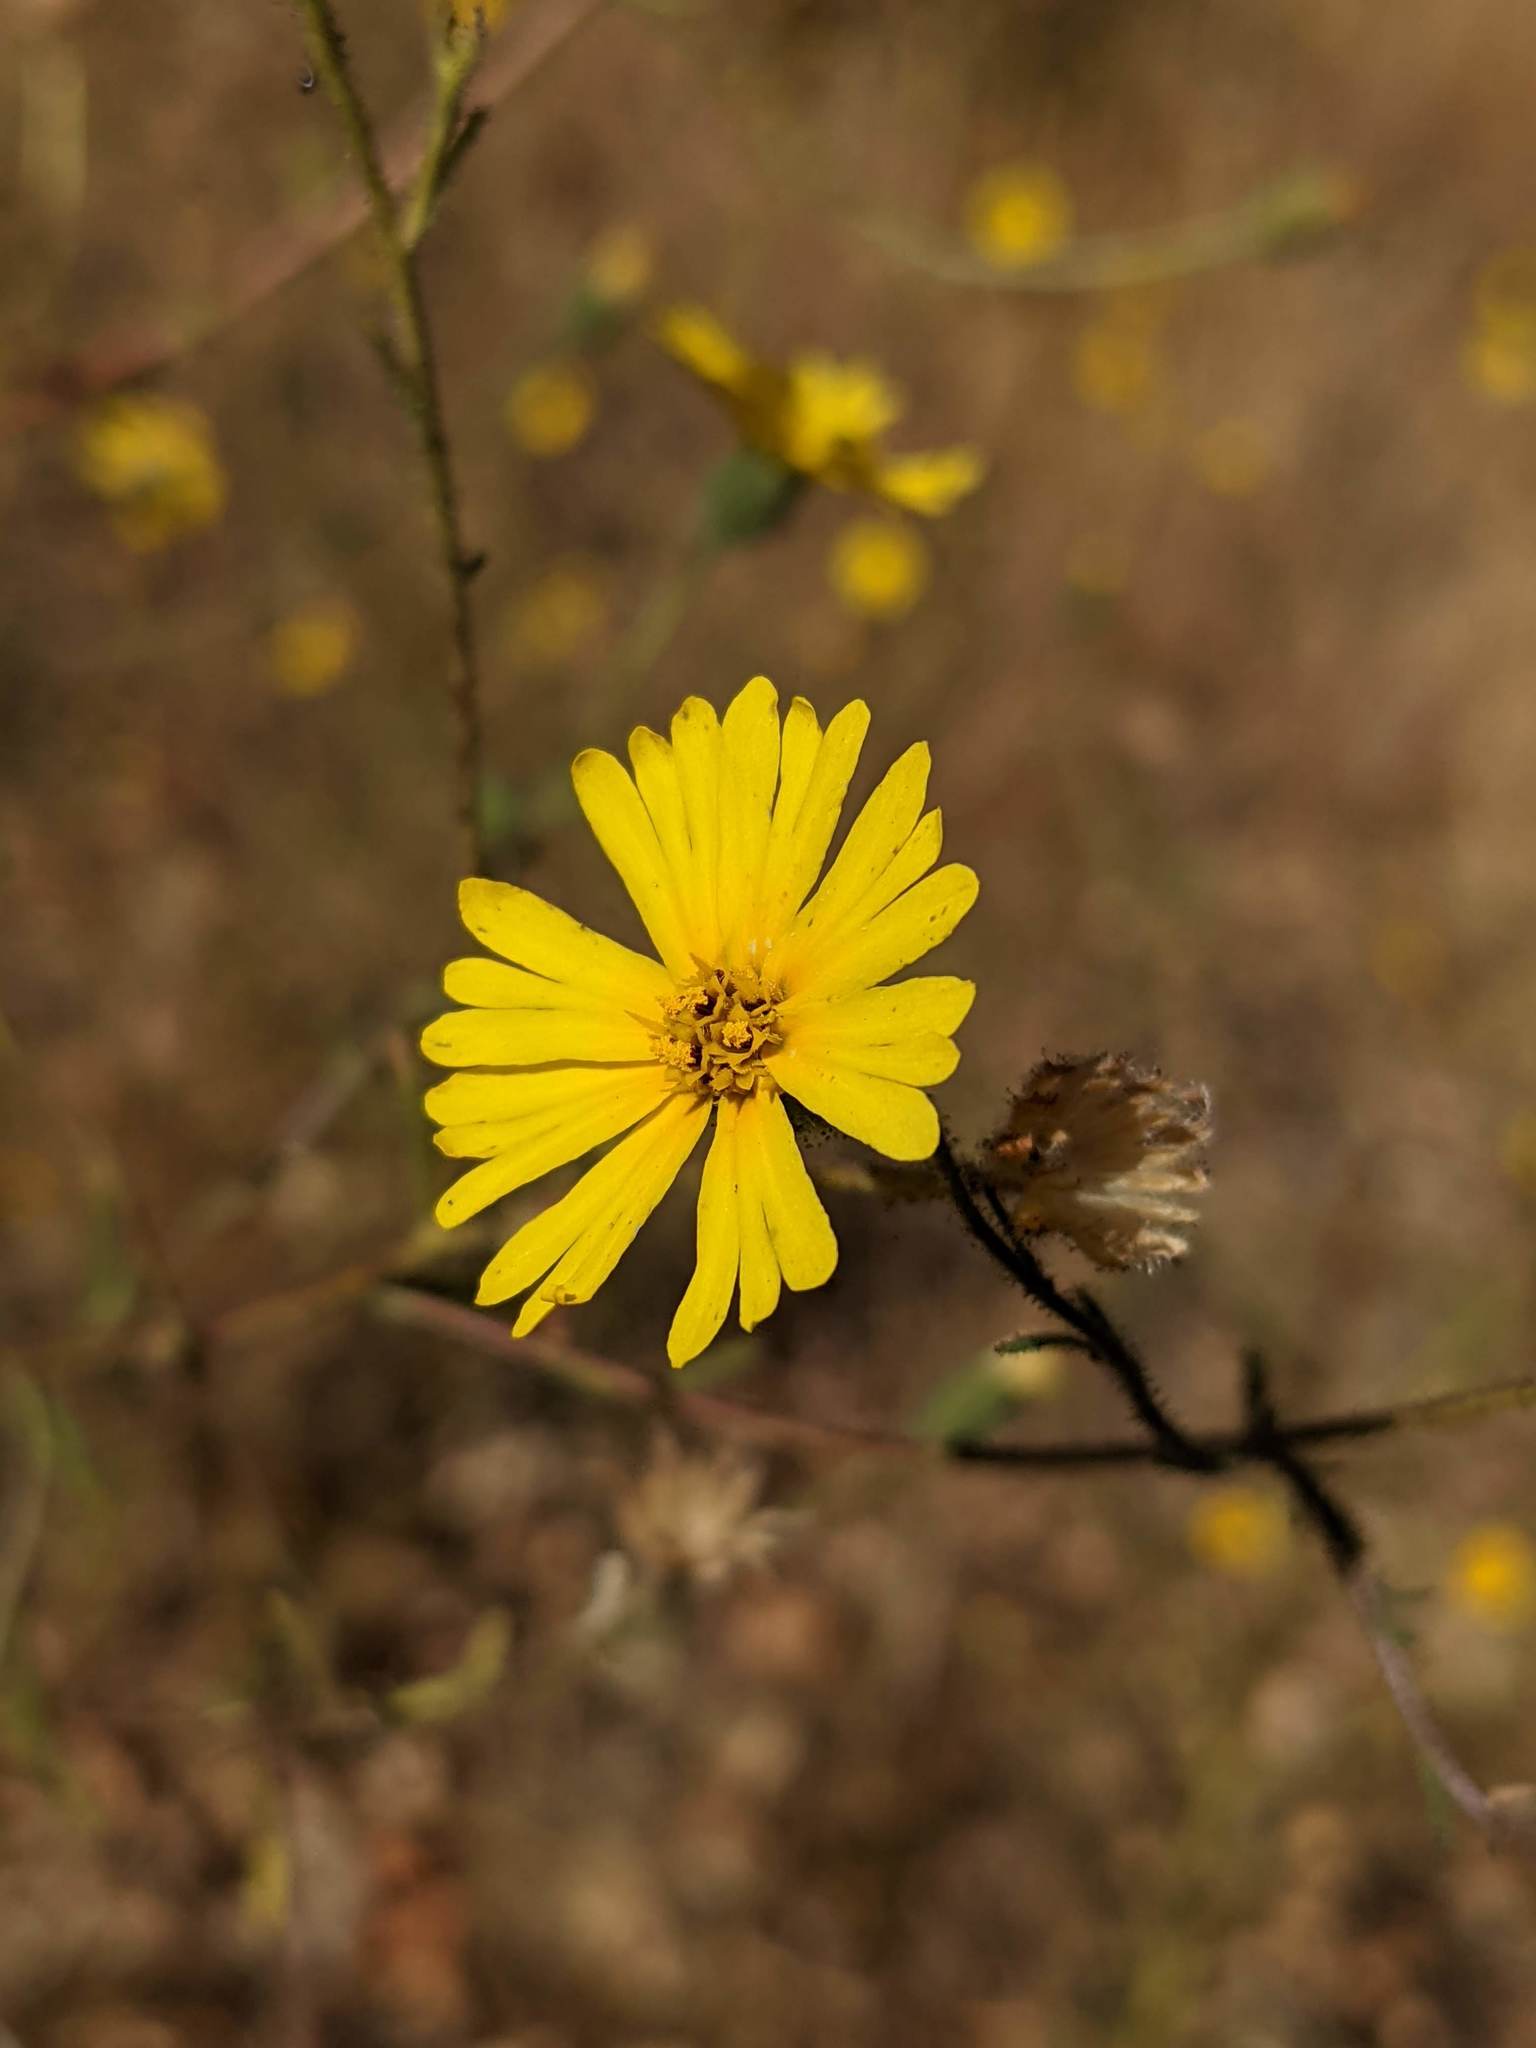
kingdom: Plantae
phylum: Tracheophyta
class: Magnoliopsida
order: Asterales
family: Asteraceae
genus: Madia
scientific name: Madia elegans
